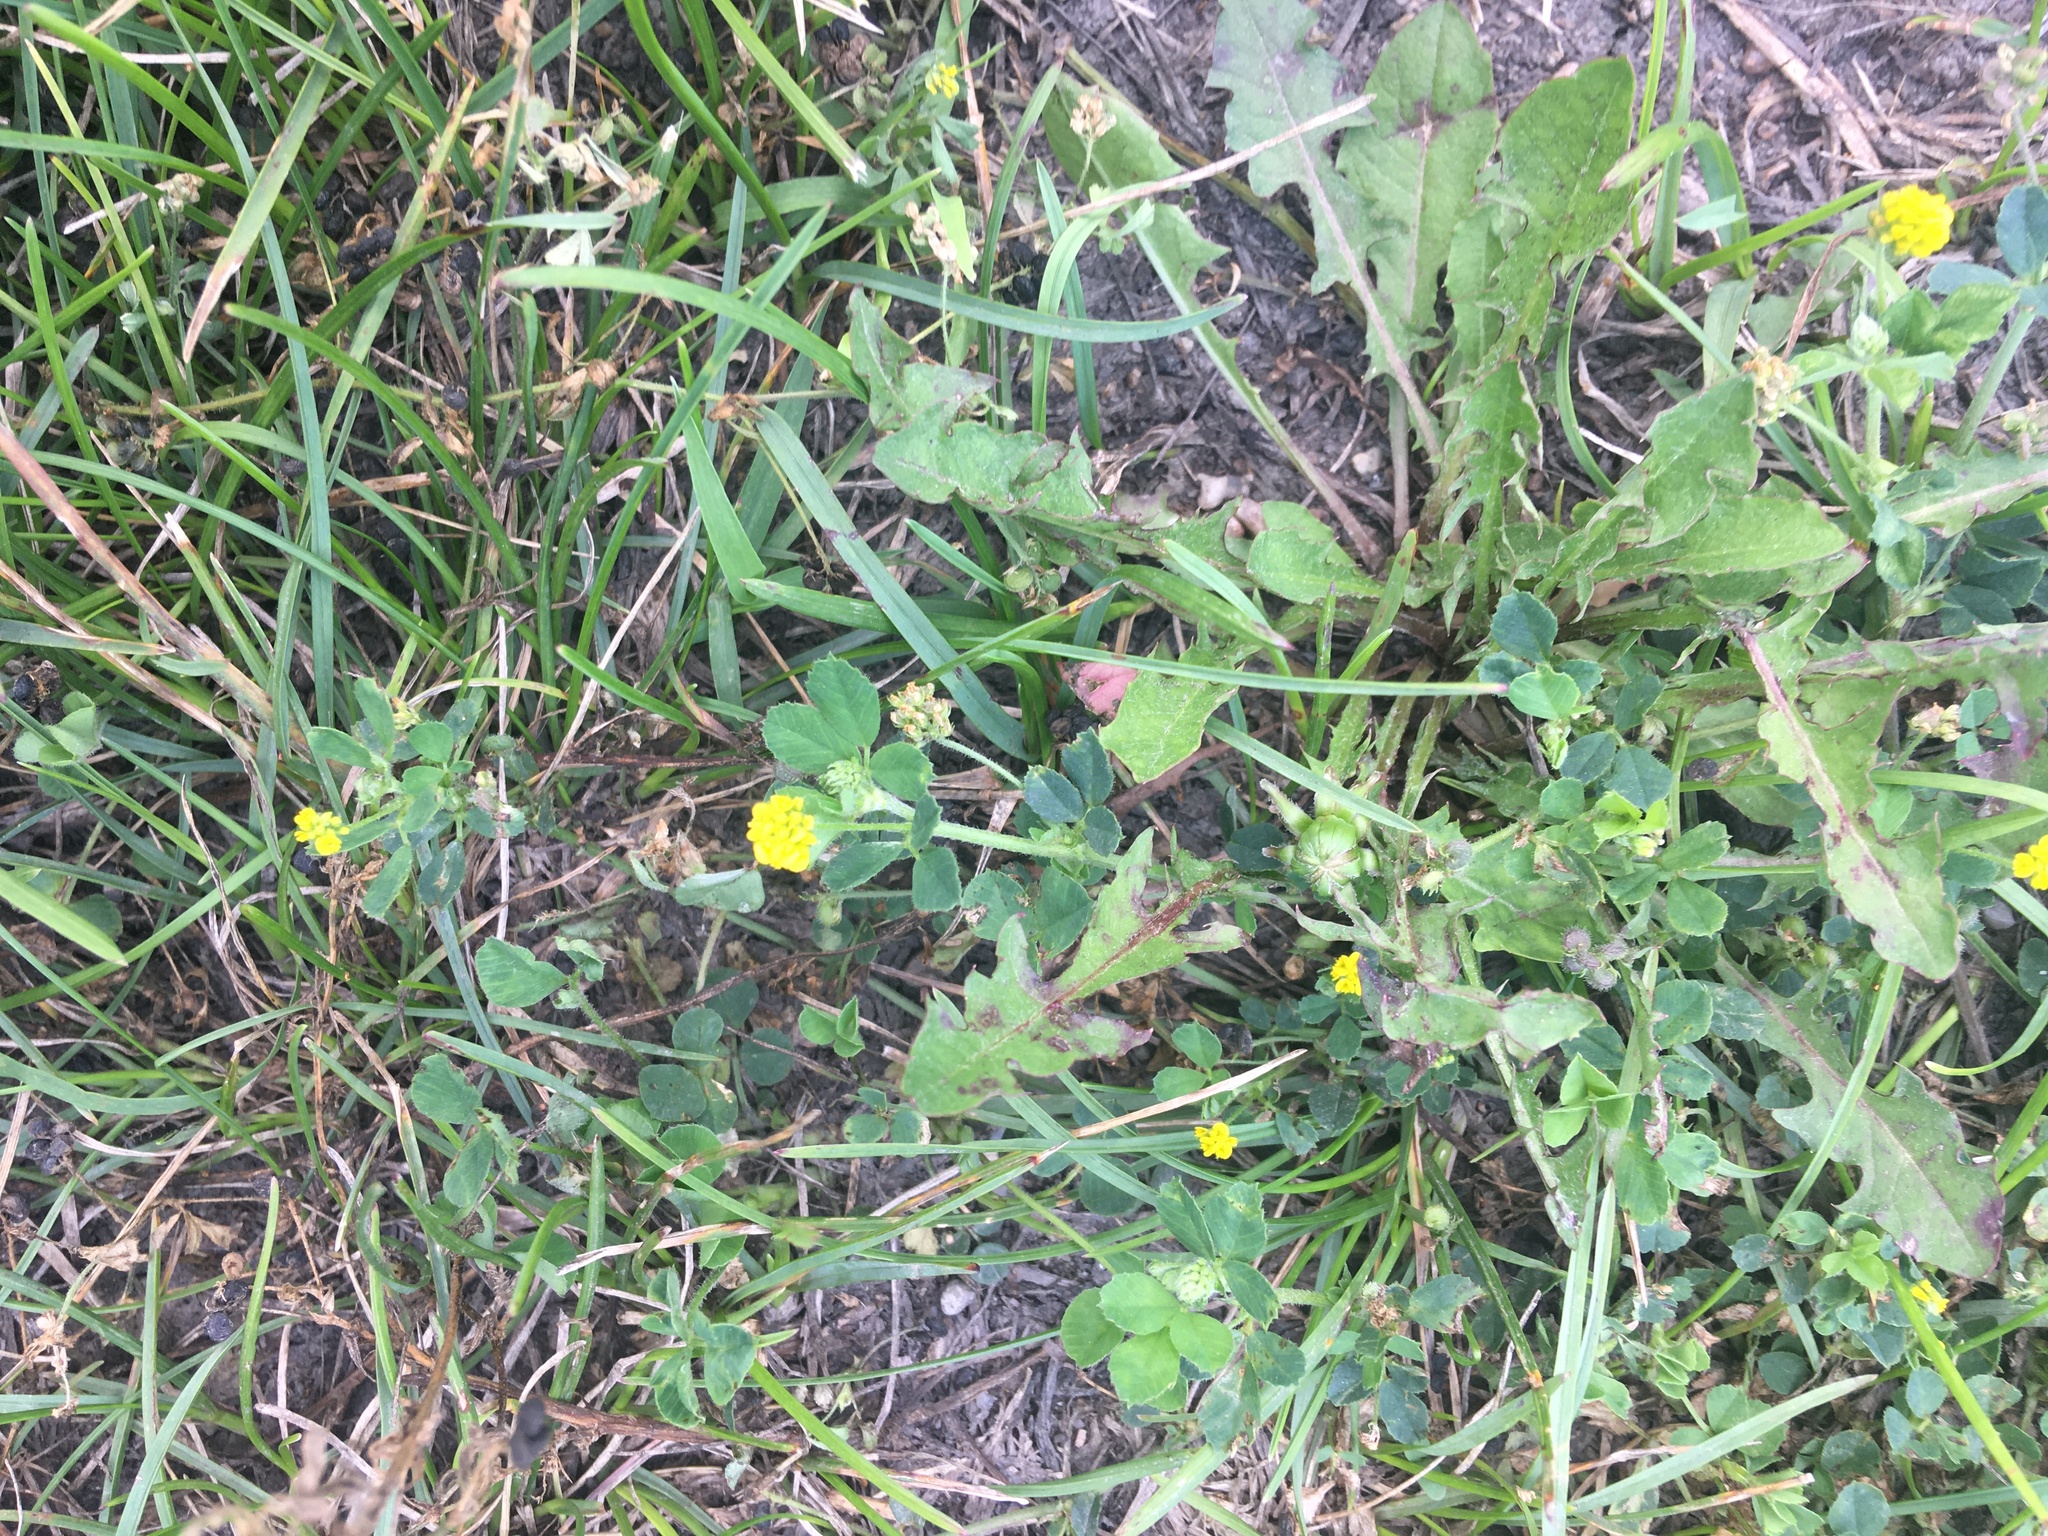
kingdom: Plantae
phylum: Tracheophyta
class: Magnoliopsida
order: Fabales
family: Fabaceae
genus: Medicago
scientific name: Medicago lupulina
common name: Black medick
